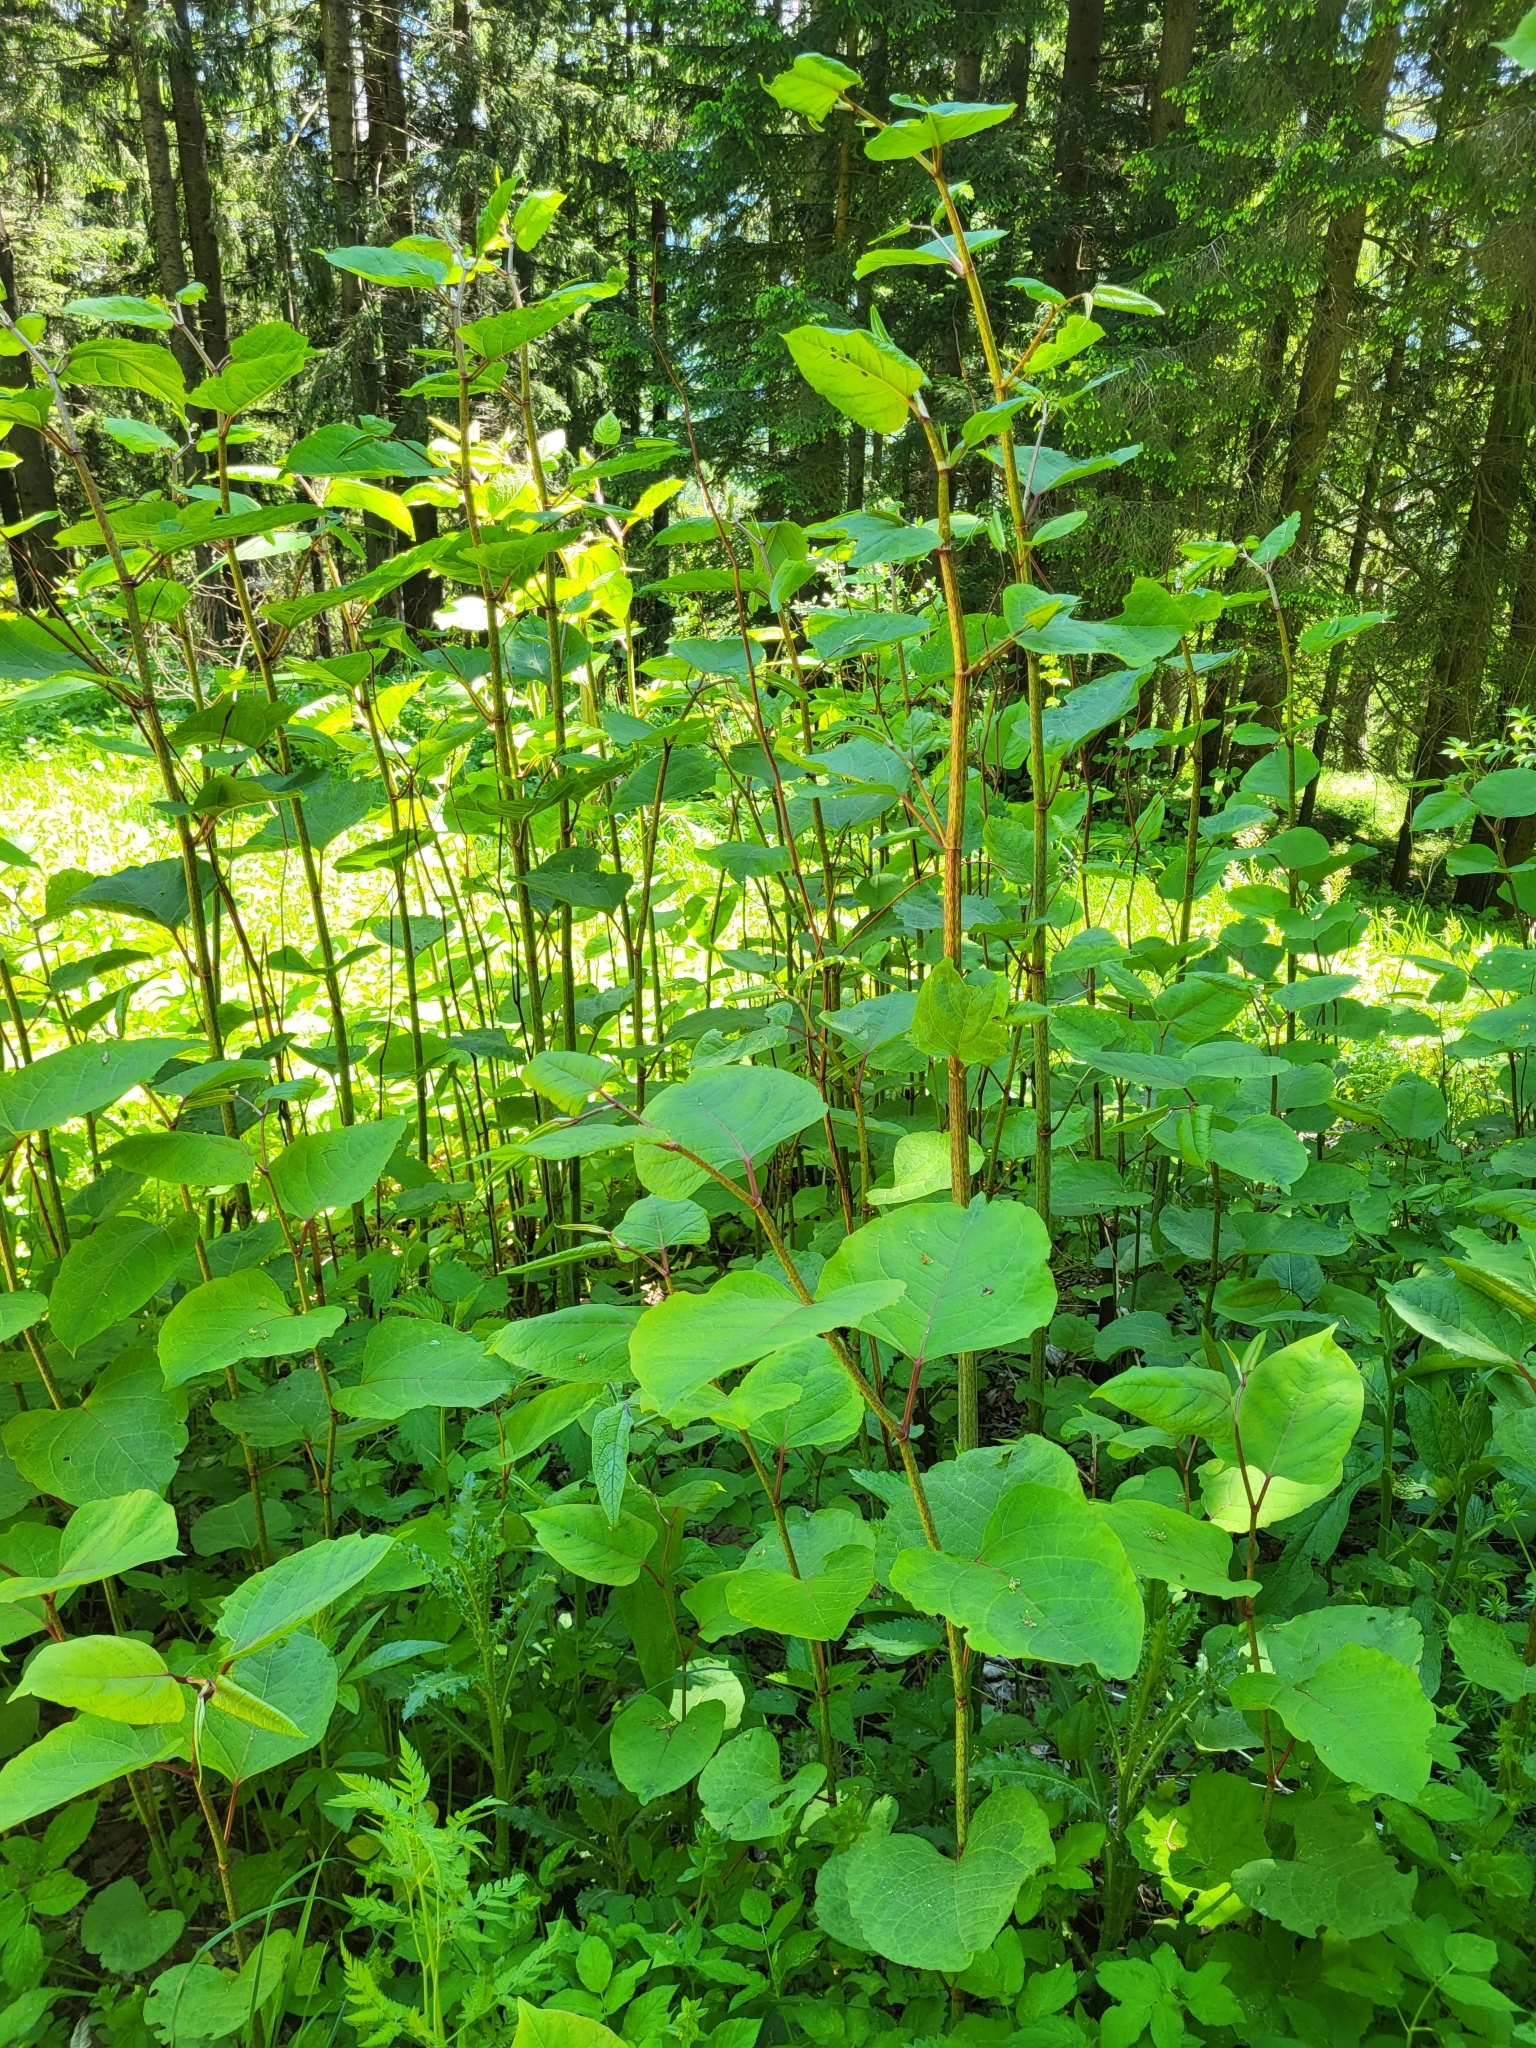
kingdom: Plantae
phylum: Tracheophyta
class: Magnoliopsida
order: Caryophyllales
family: Polygonaceae
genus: Reynoutria
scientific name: Reynoutria bohemica
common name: Bohemian knotweed
